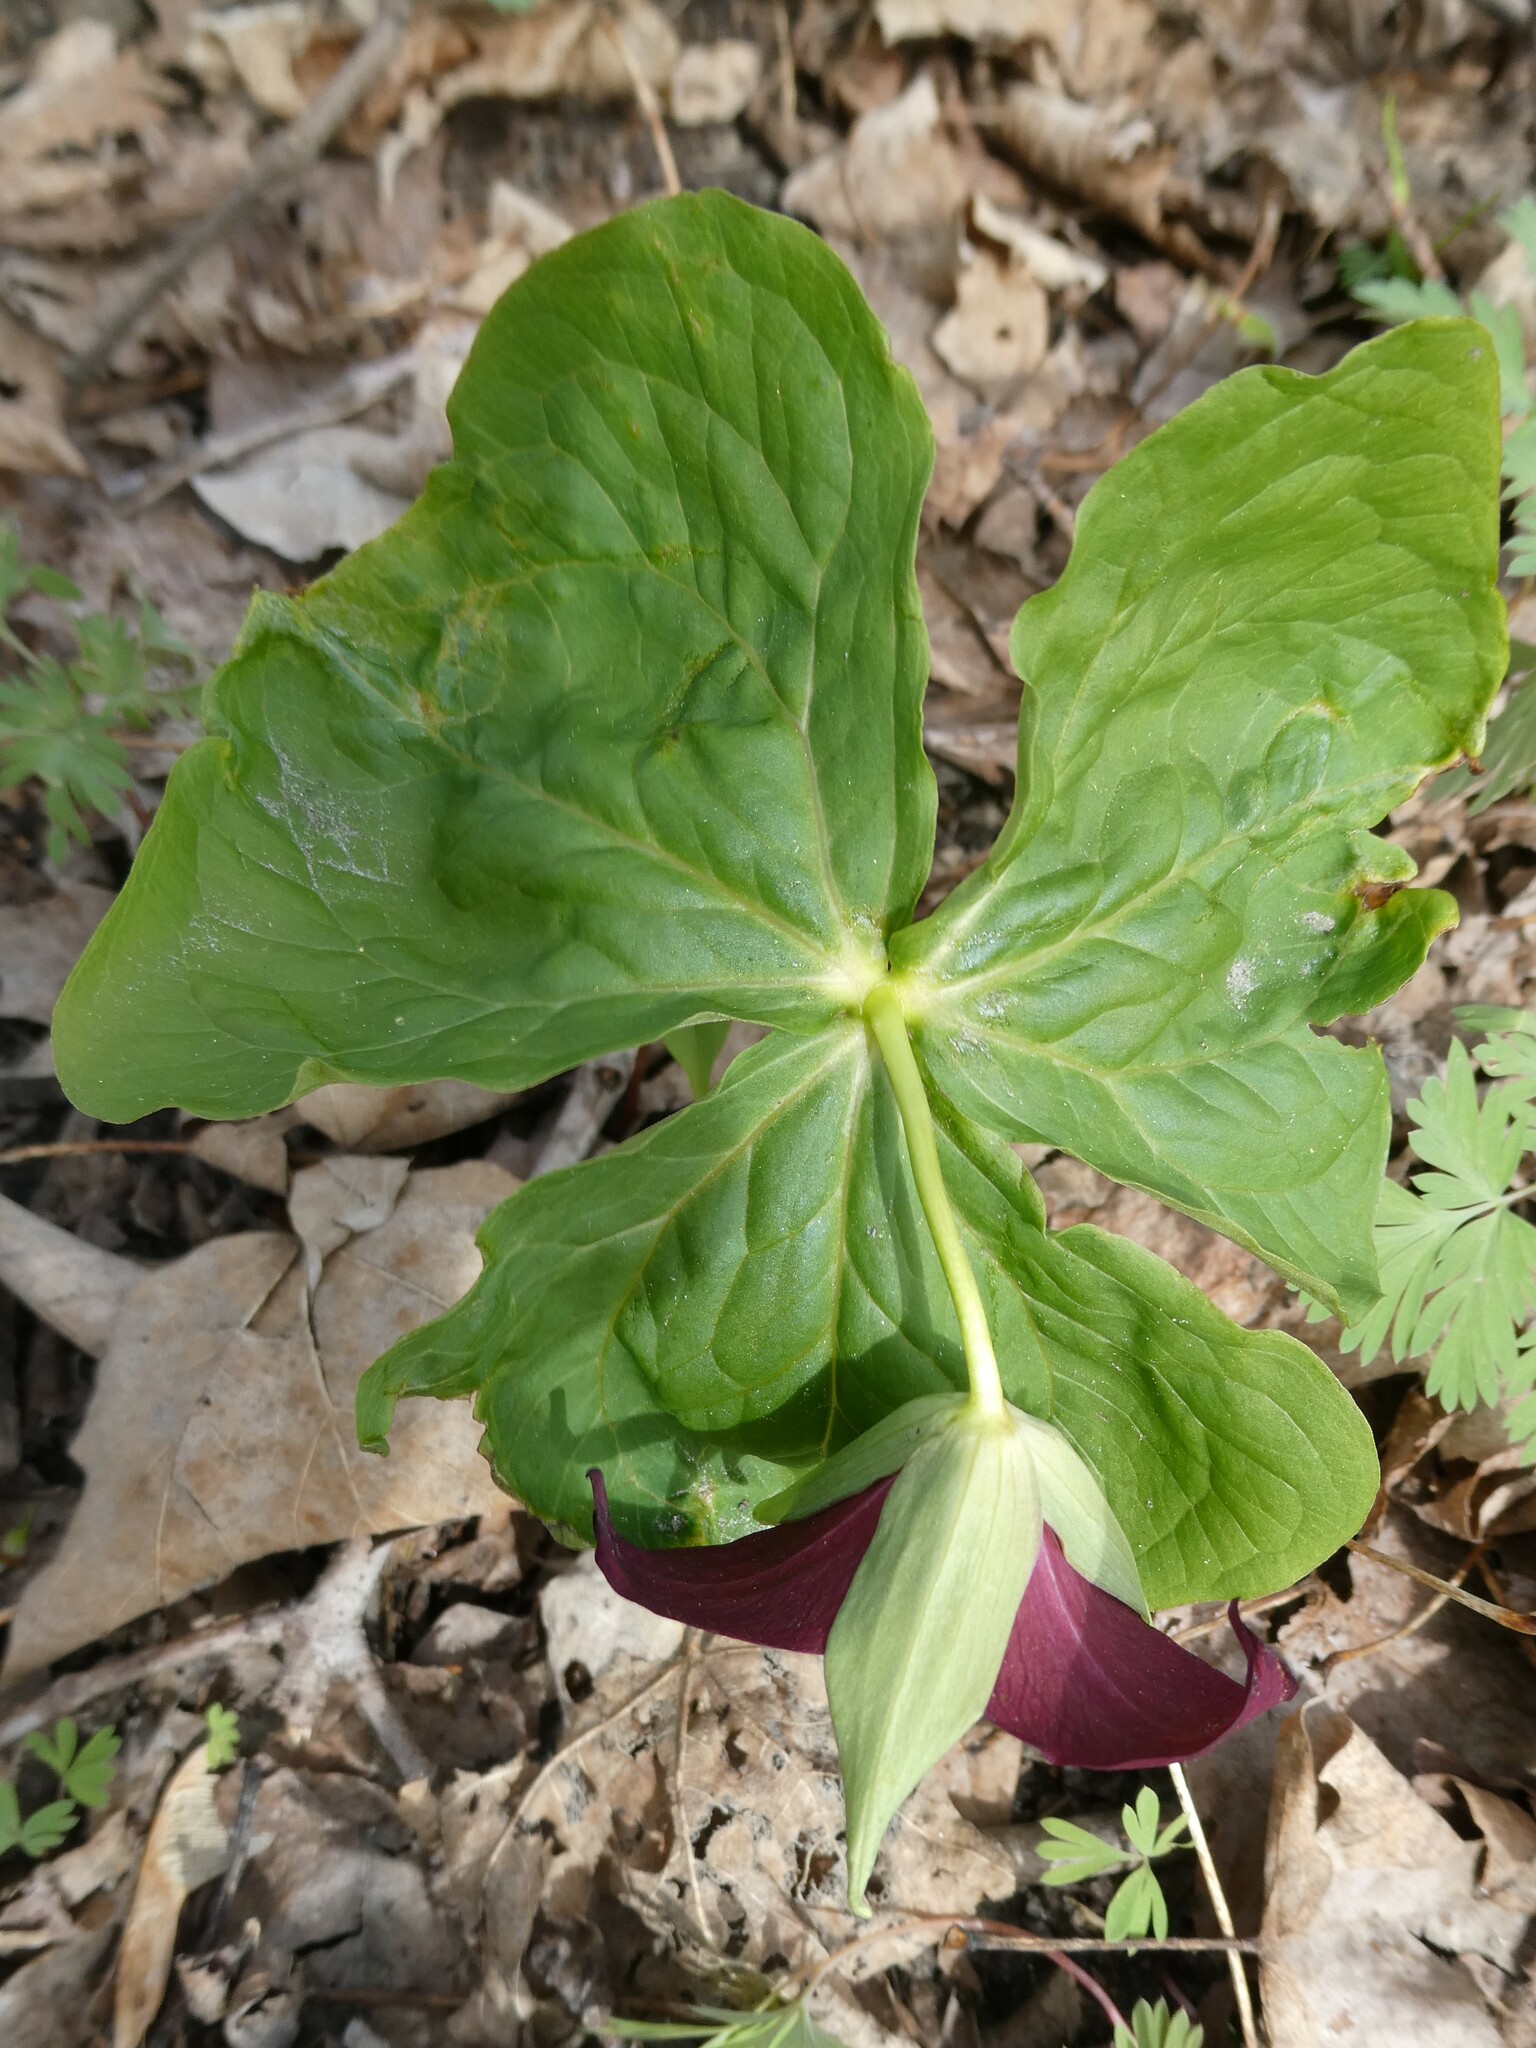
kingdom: Plantae
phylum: Tracheophyta
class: Liliopsida
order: Liliales
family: Melanthiaceae
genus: Trillium
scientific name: Trillium erectum
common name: Purple trillium
